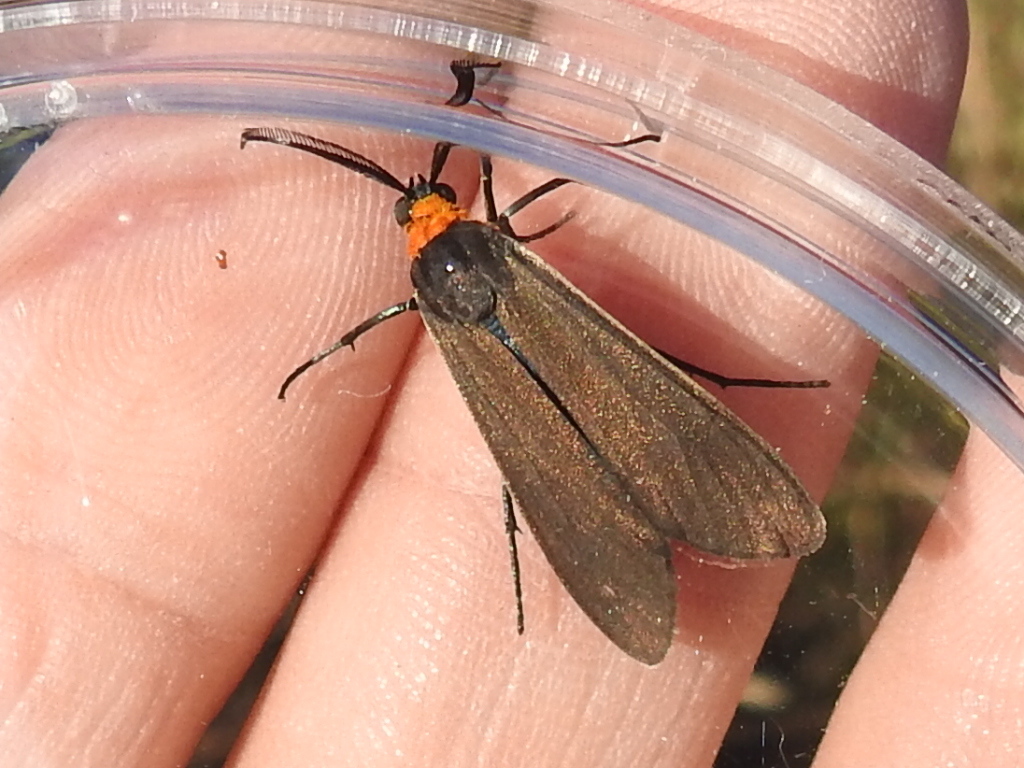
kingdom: Animalia
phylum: Arthropoda
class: Insecta
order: Lepidoptera
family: Erebidae
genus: Cisseps
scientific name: Cisseps fulvicollis
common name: Yellow-collared scape moth
